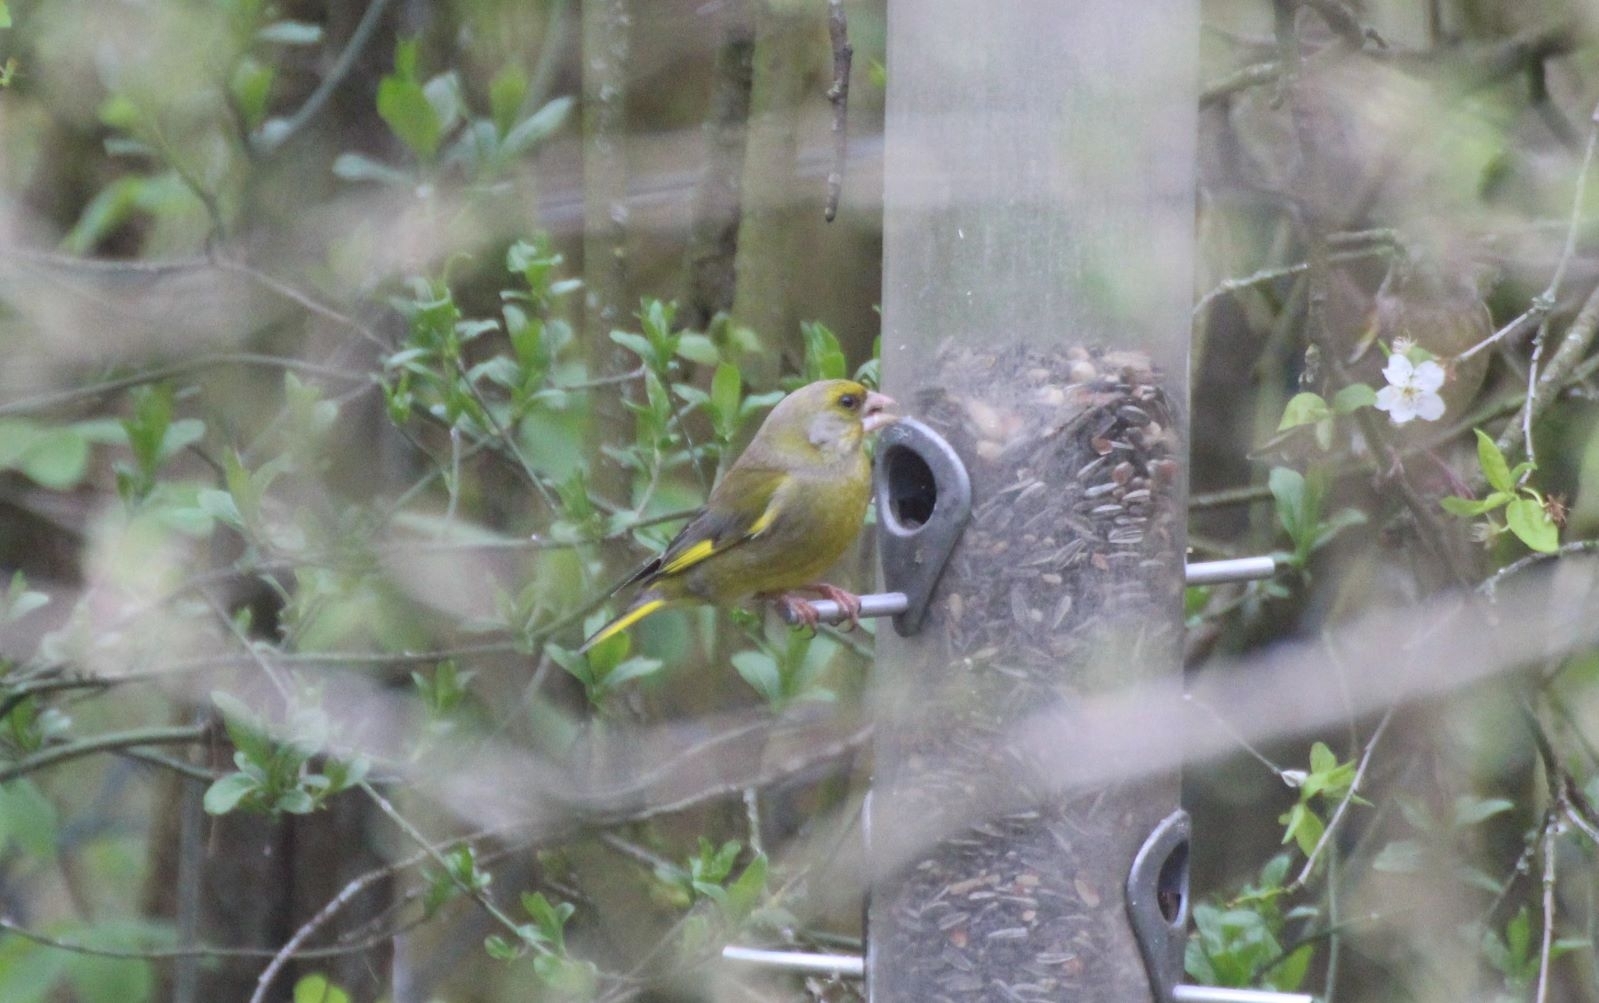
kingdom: Plantae
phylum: Tracheophyta
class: Liliopsida
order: Poales
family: Poaceae
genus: Chloris
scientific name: Chloris chloris
